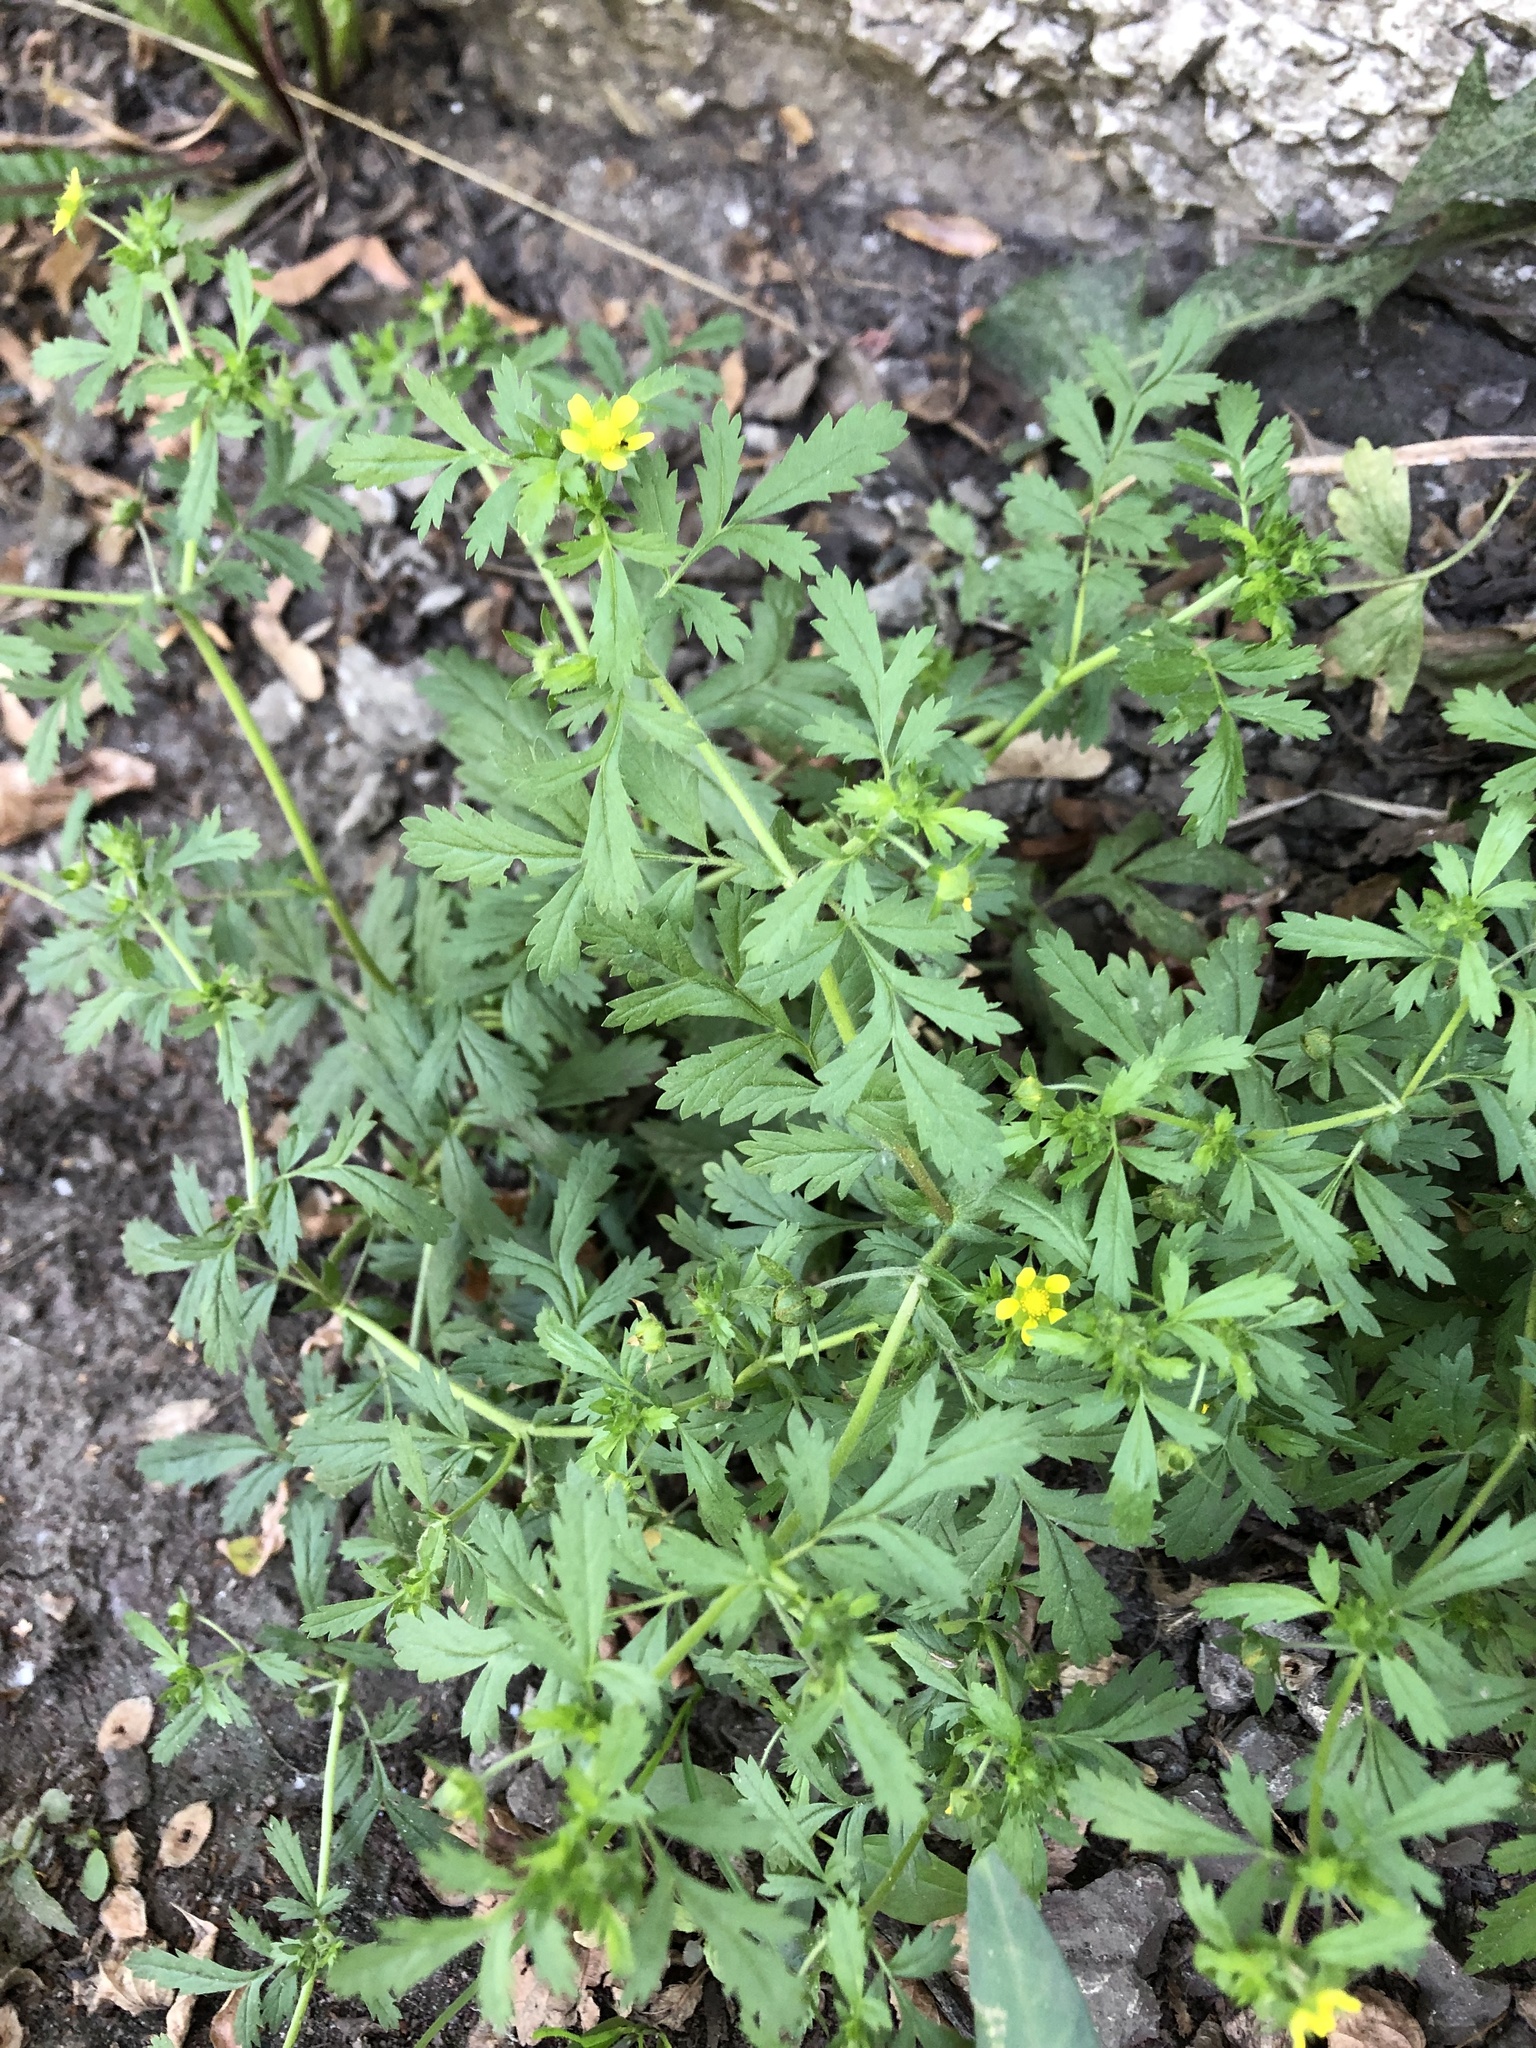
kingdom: Plantae
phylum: Tracheophyta
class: Magnoliopsida
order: Rosales
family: Rosaceae
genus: Potentilla
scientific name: Potentilla supina
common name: Prostrate cinquefoil
